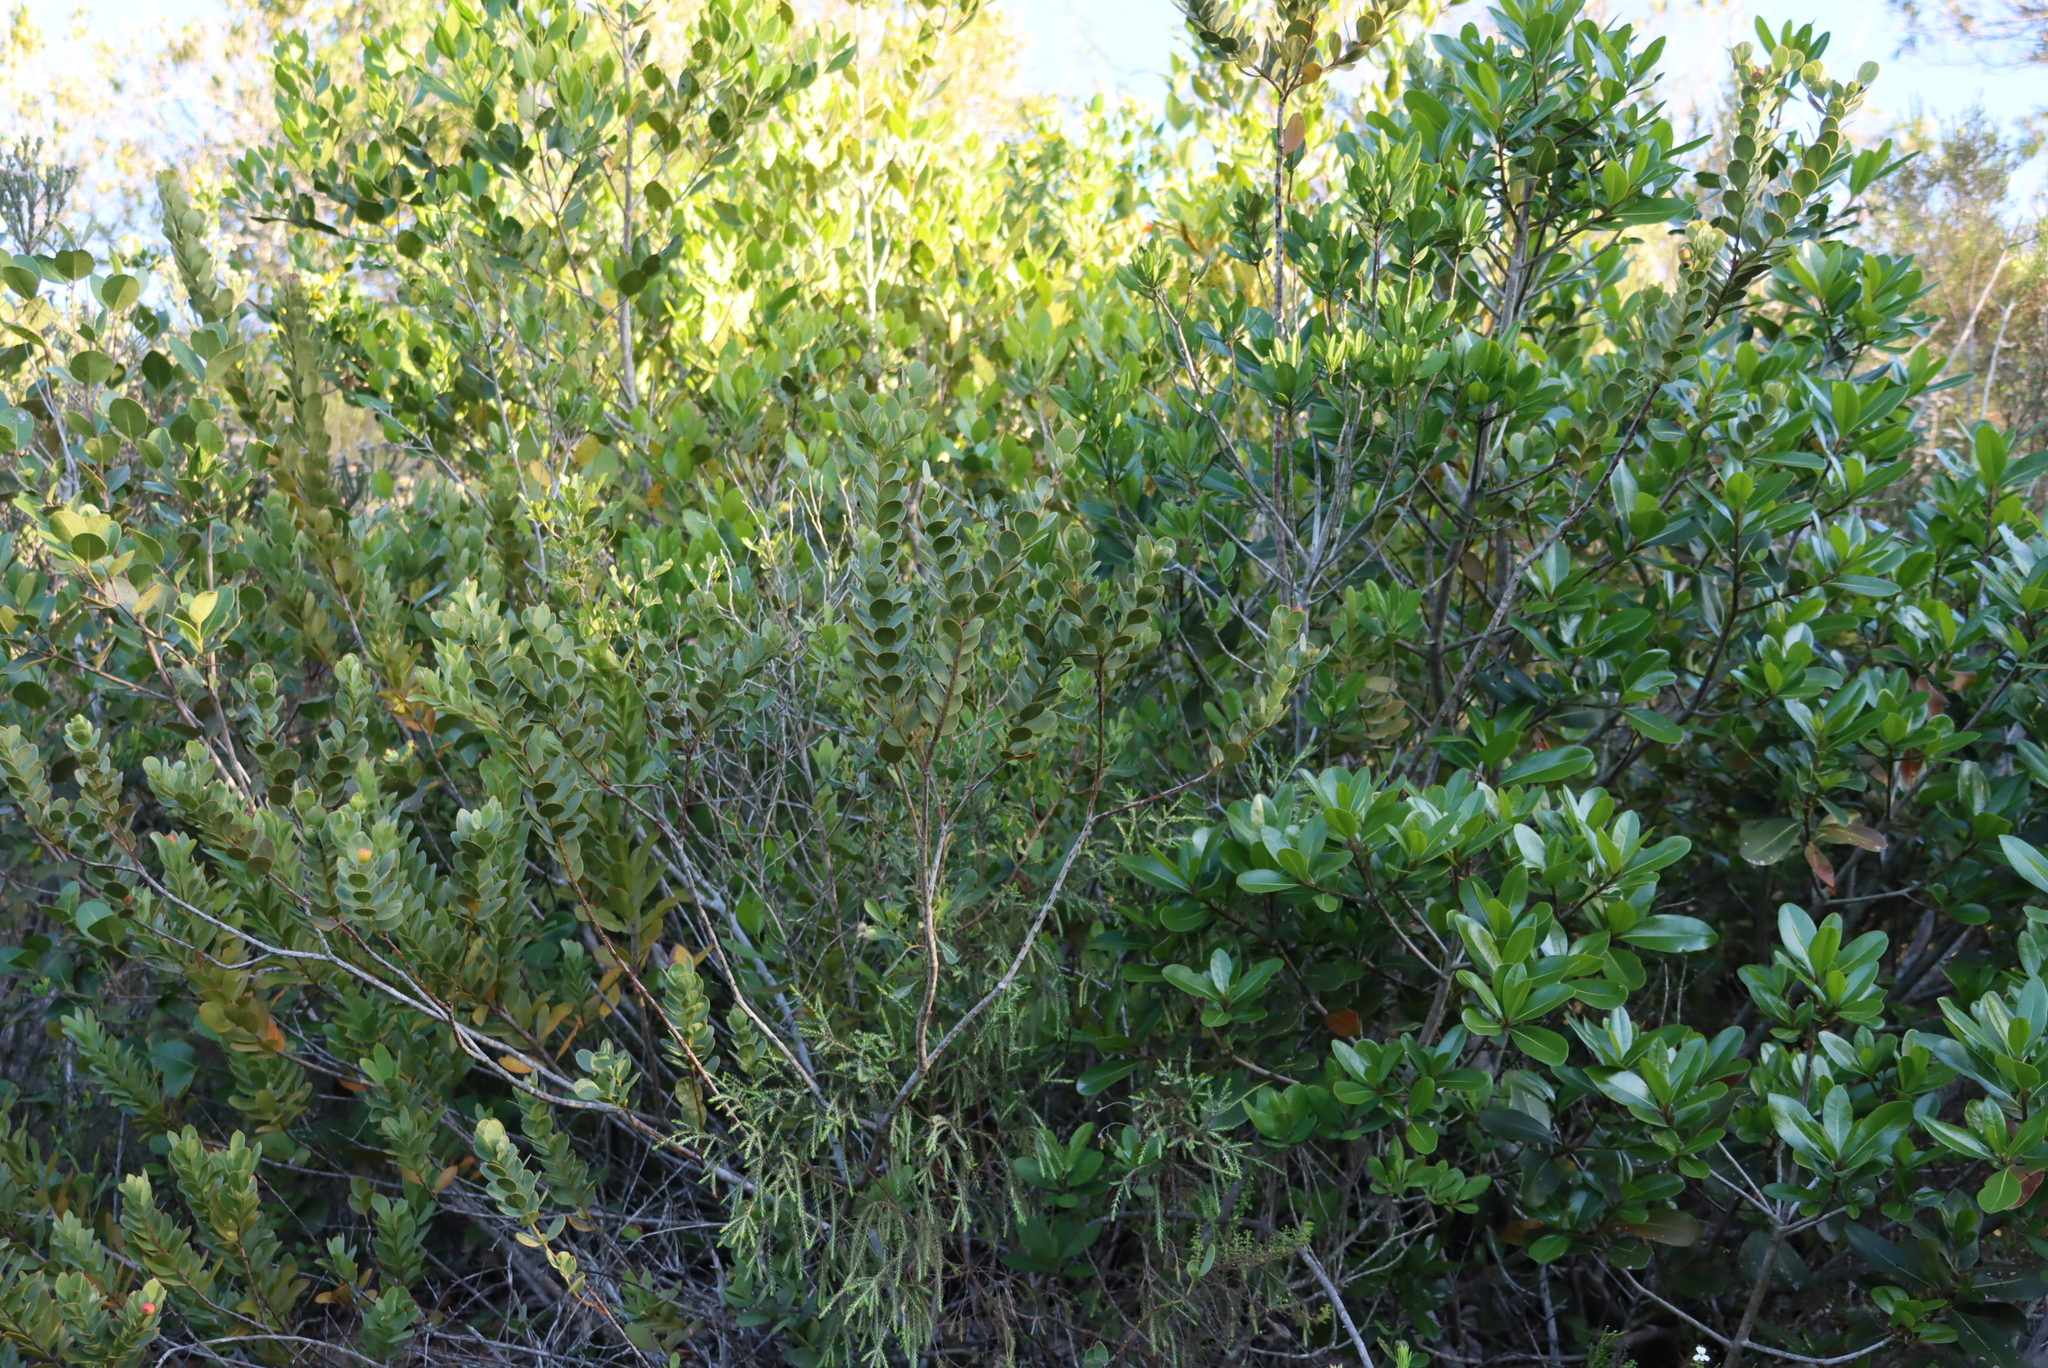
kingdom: Plantae
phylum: Tracheophyta
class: Magnoliopsida
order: Santalales
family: Santalaceae
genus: Osyris
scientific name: Osyris compressa
